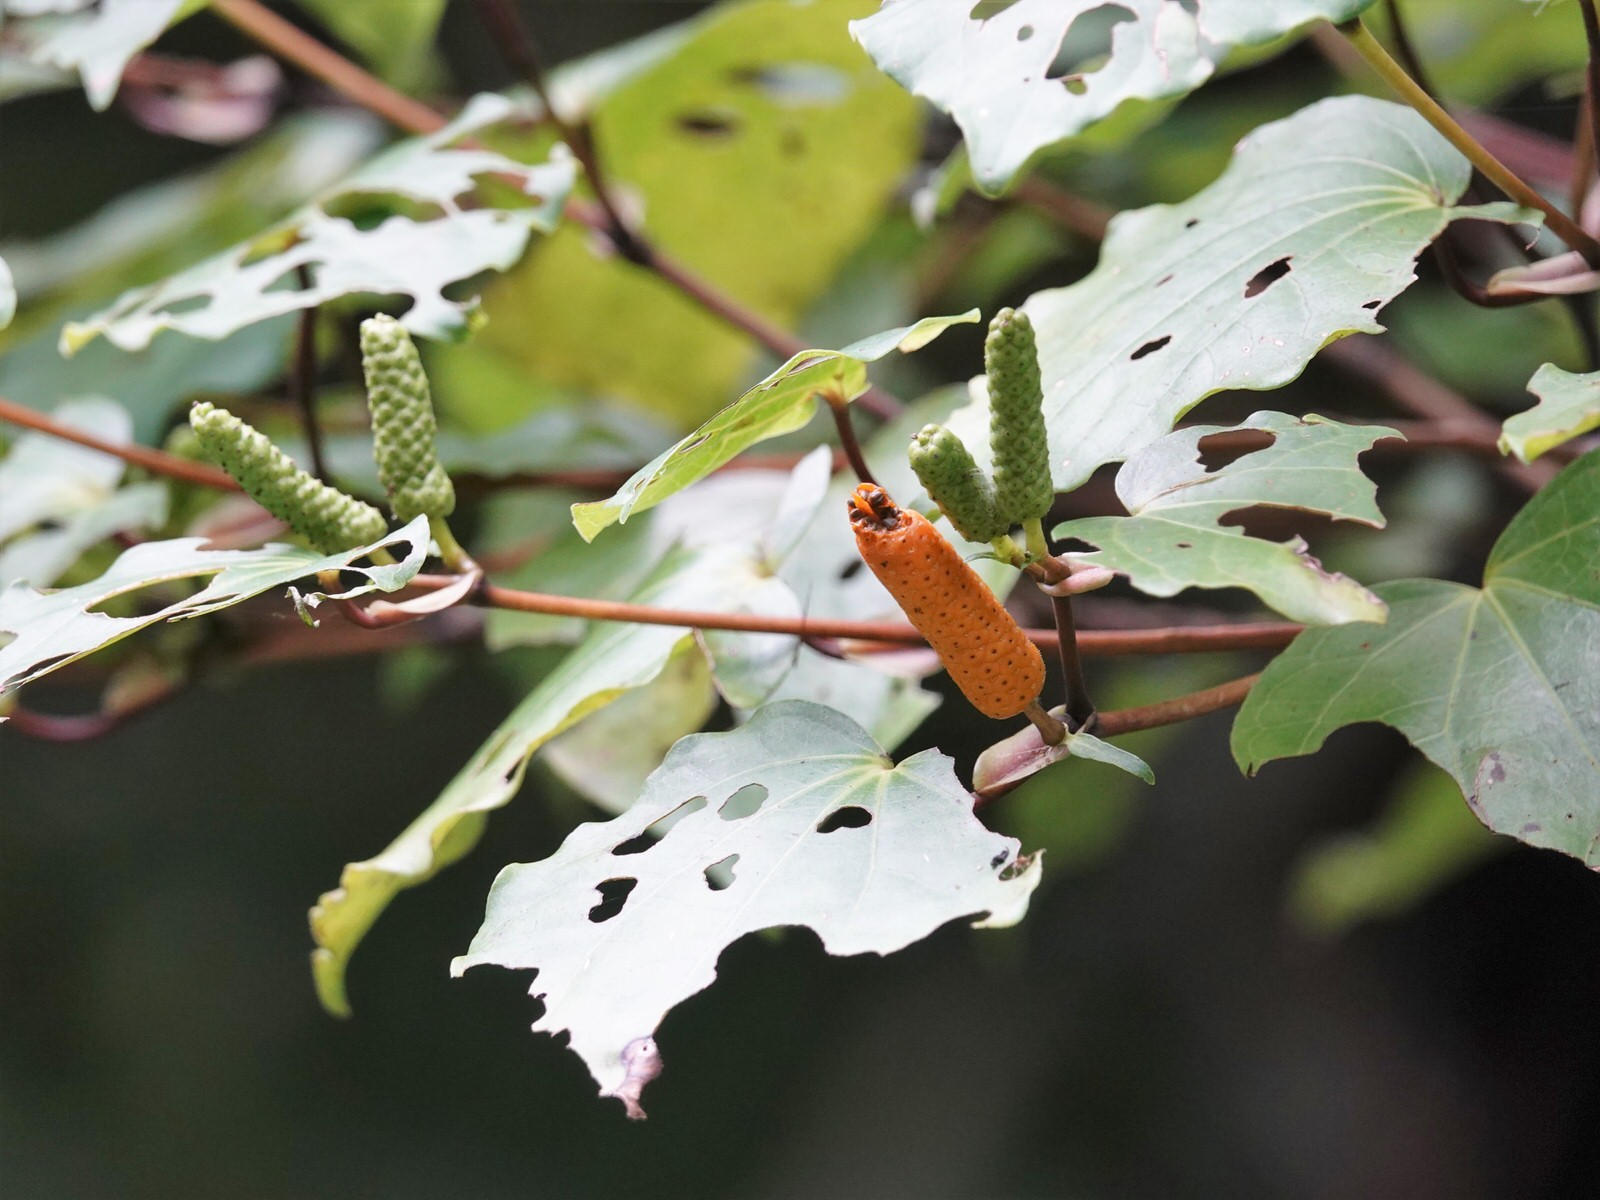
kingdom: Plantae
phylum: Tracheophyta
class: Magnoliopsida
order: Piperales
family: Piperaceae
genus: Macropiper
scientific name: Macropiper excelsum
